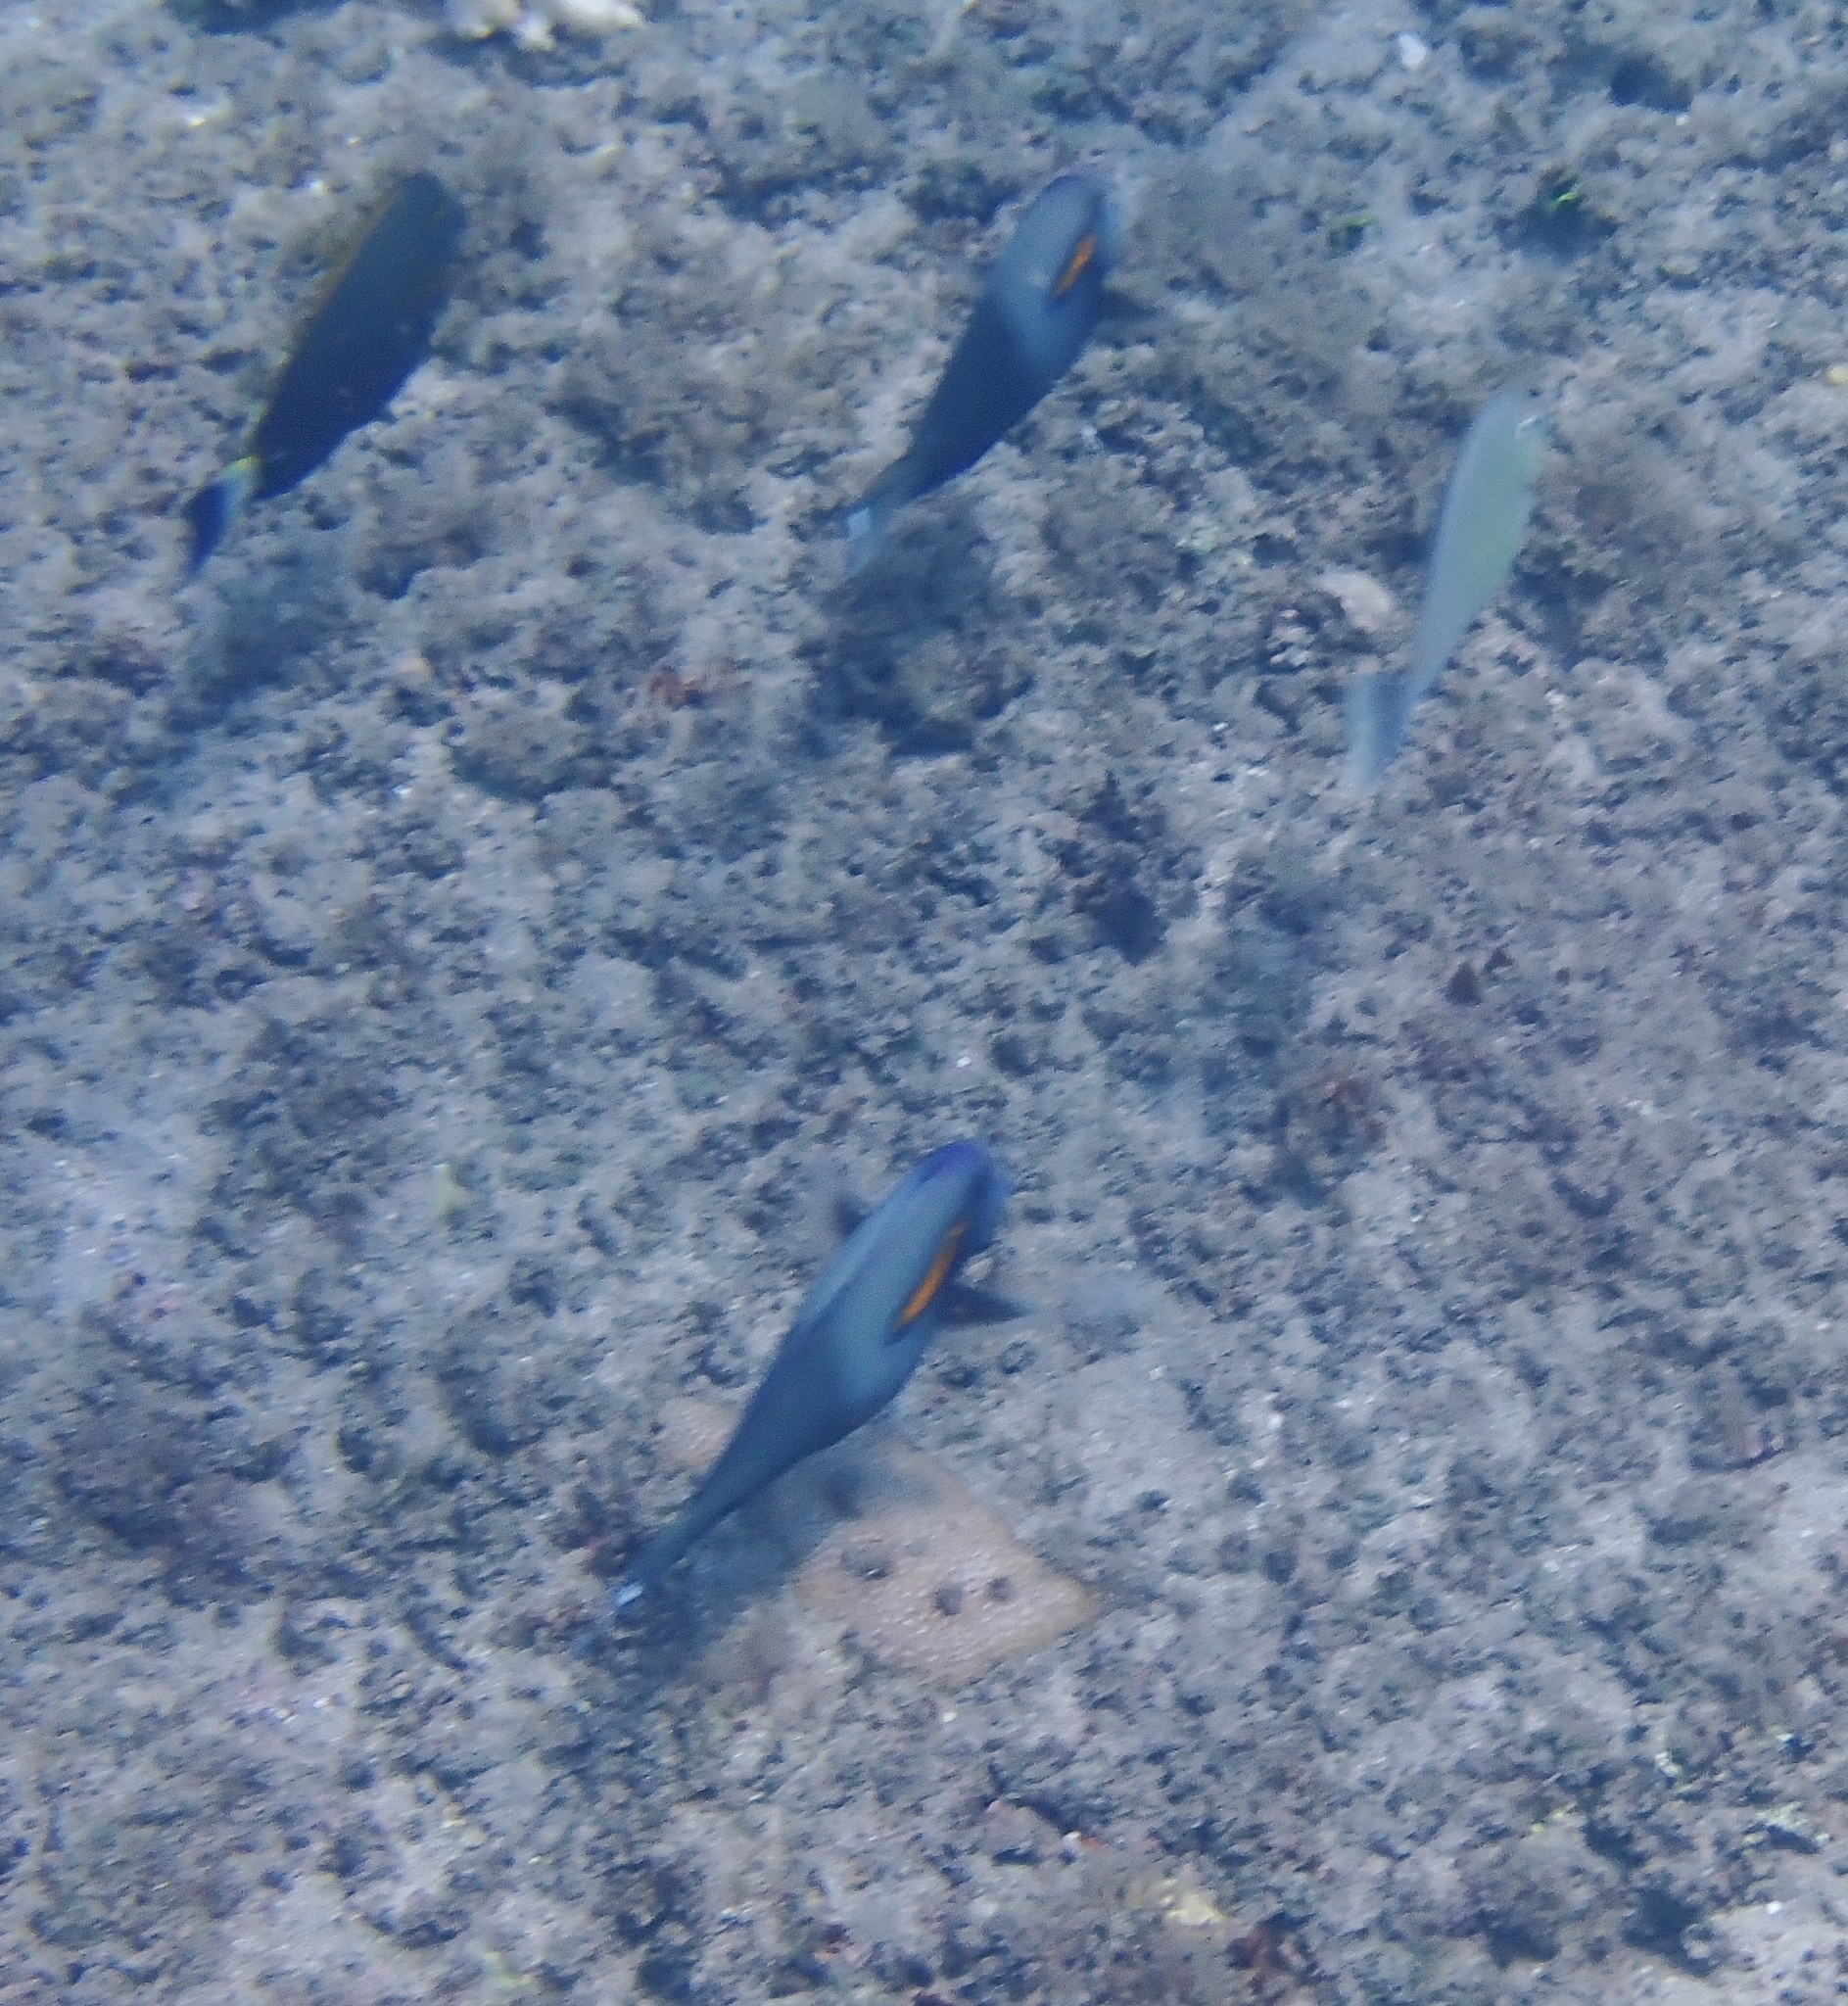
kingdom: Animalia
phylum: Chordata
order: Perciformes
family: Acanthuridae
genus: Acanthurus
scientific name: Acanthurus olivaceus
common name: Gendarme fish
